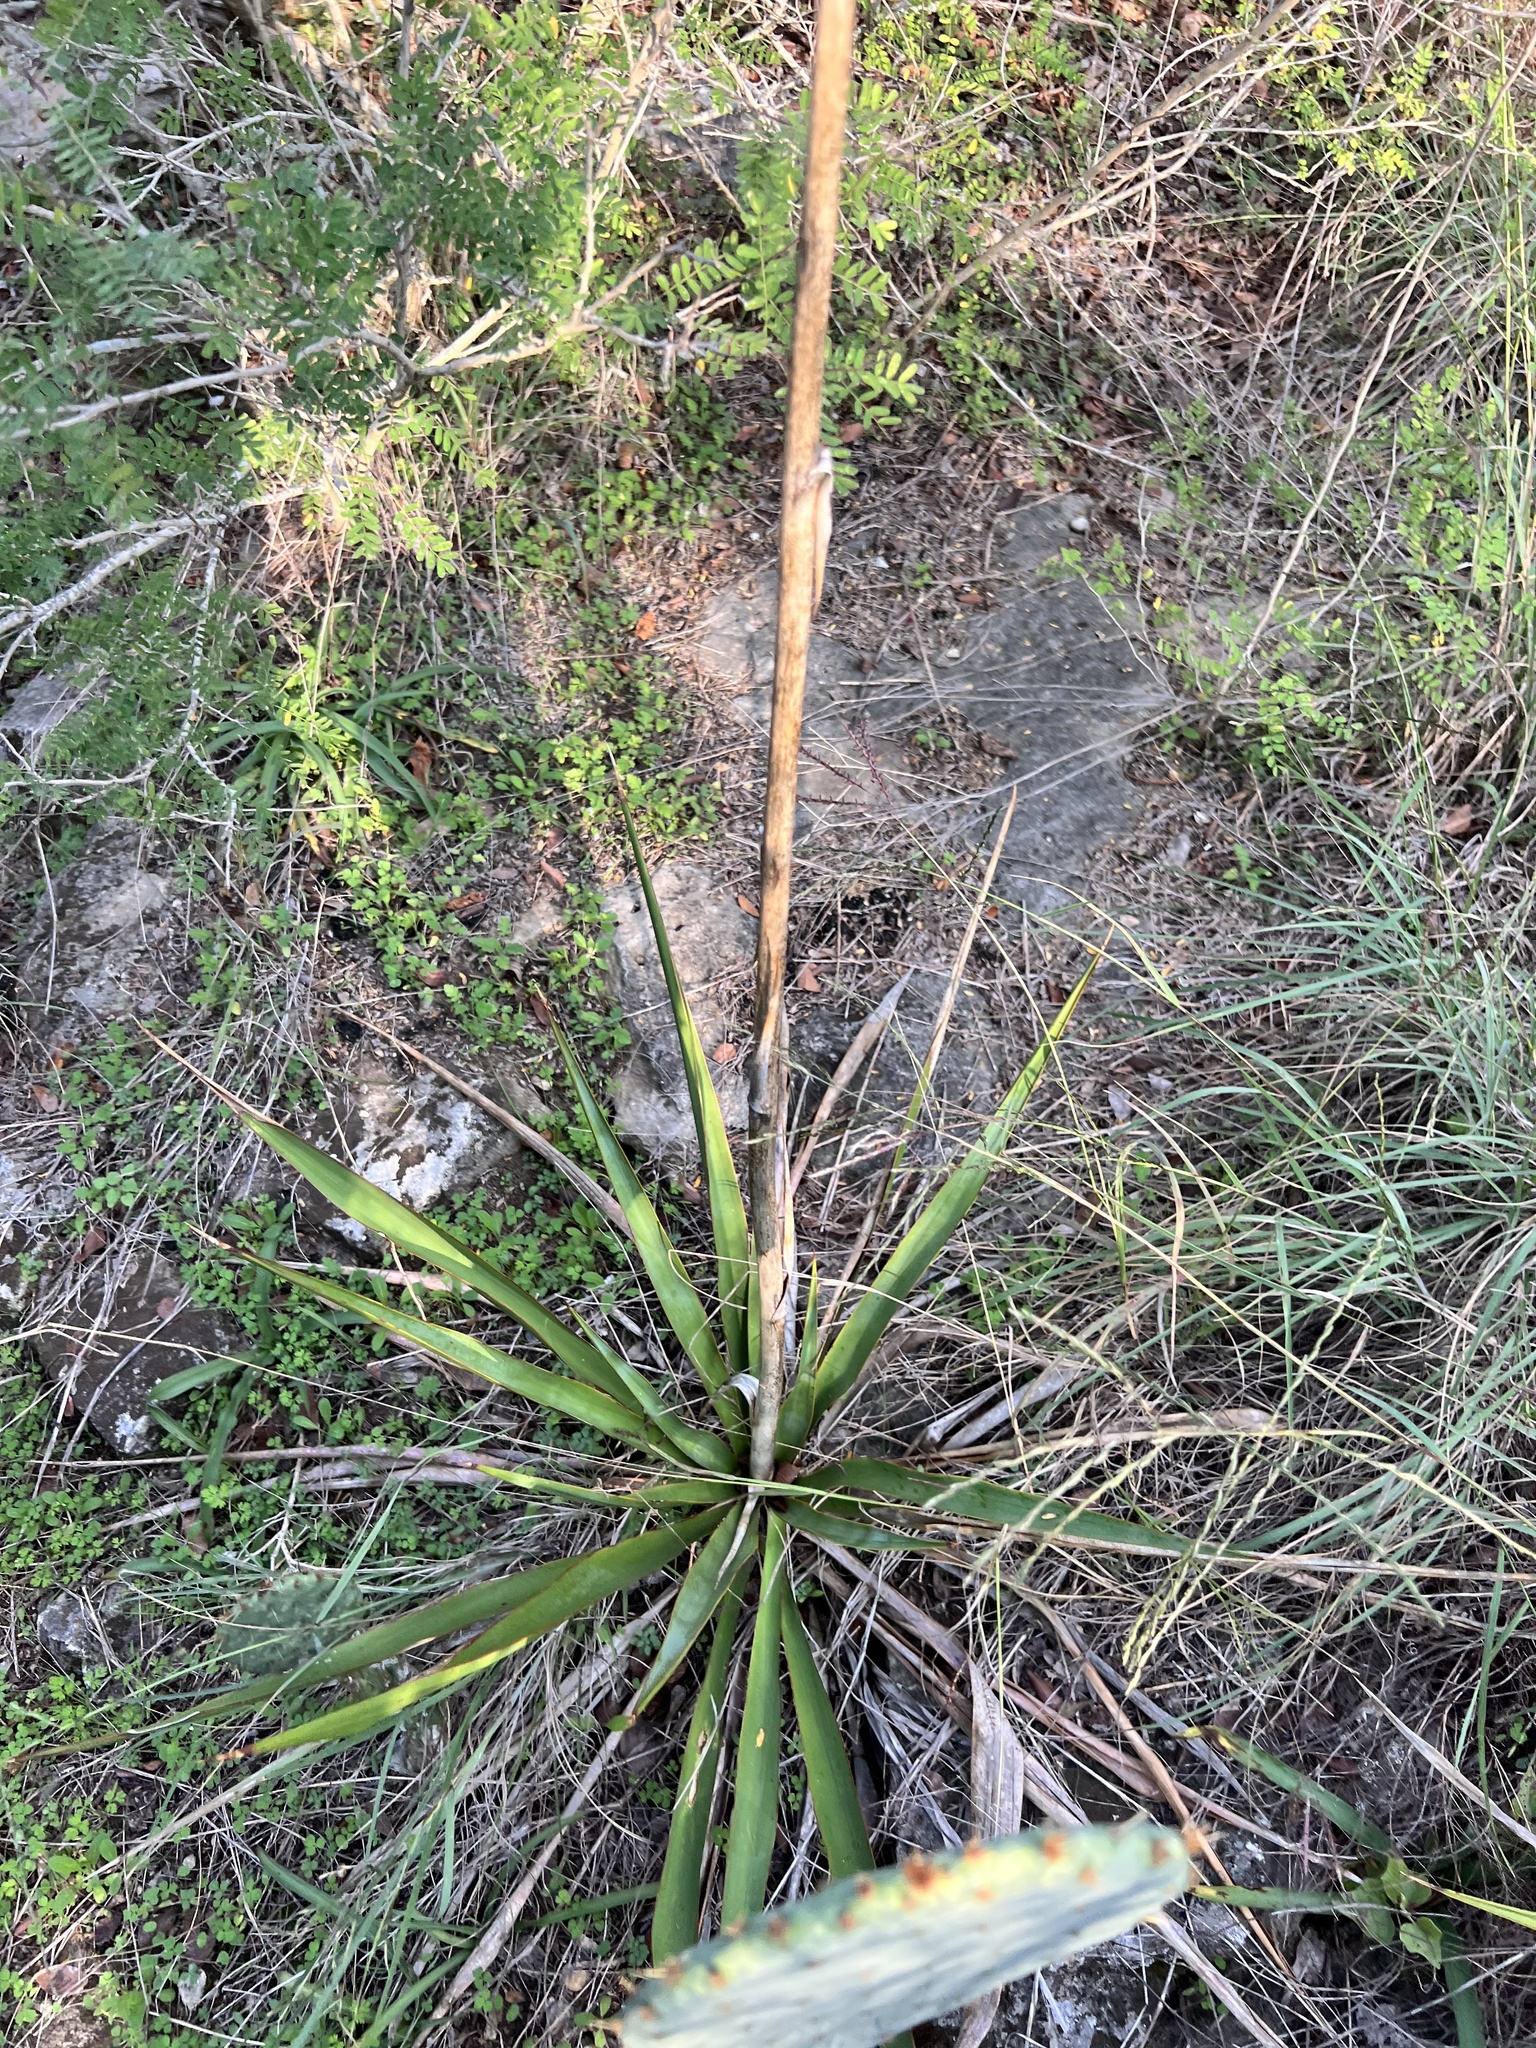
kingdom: Plantae
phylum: Tracheophyta
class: Liliopsida
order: Asparagales
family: Asparagaceae
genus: Yucca
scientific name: Yucca rupicola
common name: Twisted-leaf spanish-dagger
